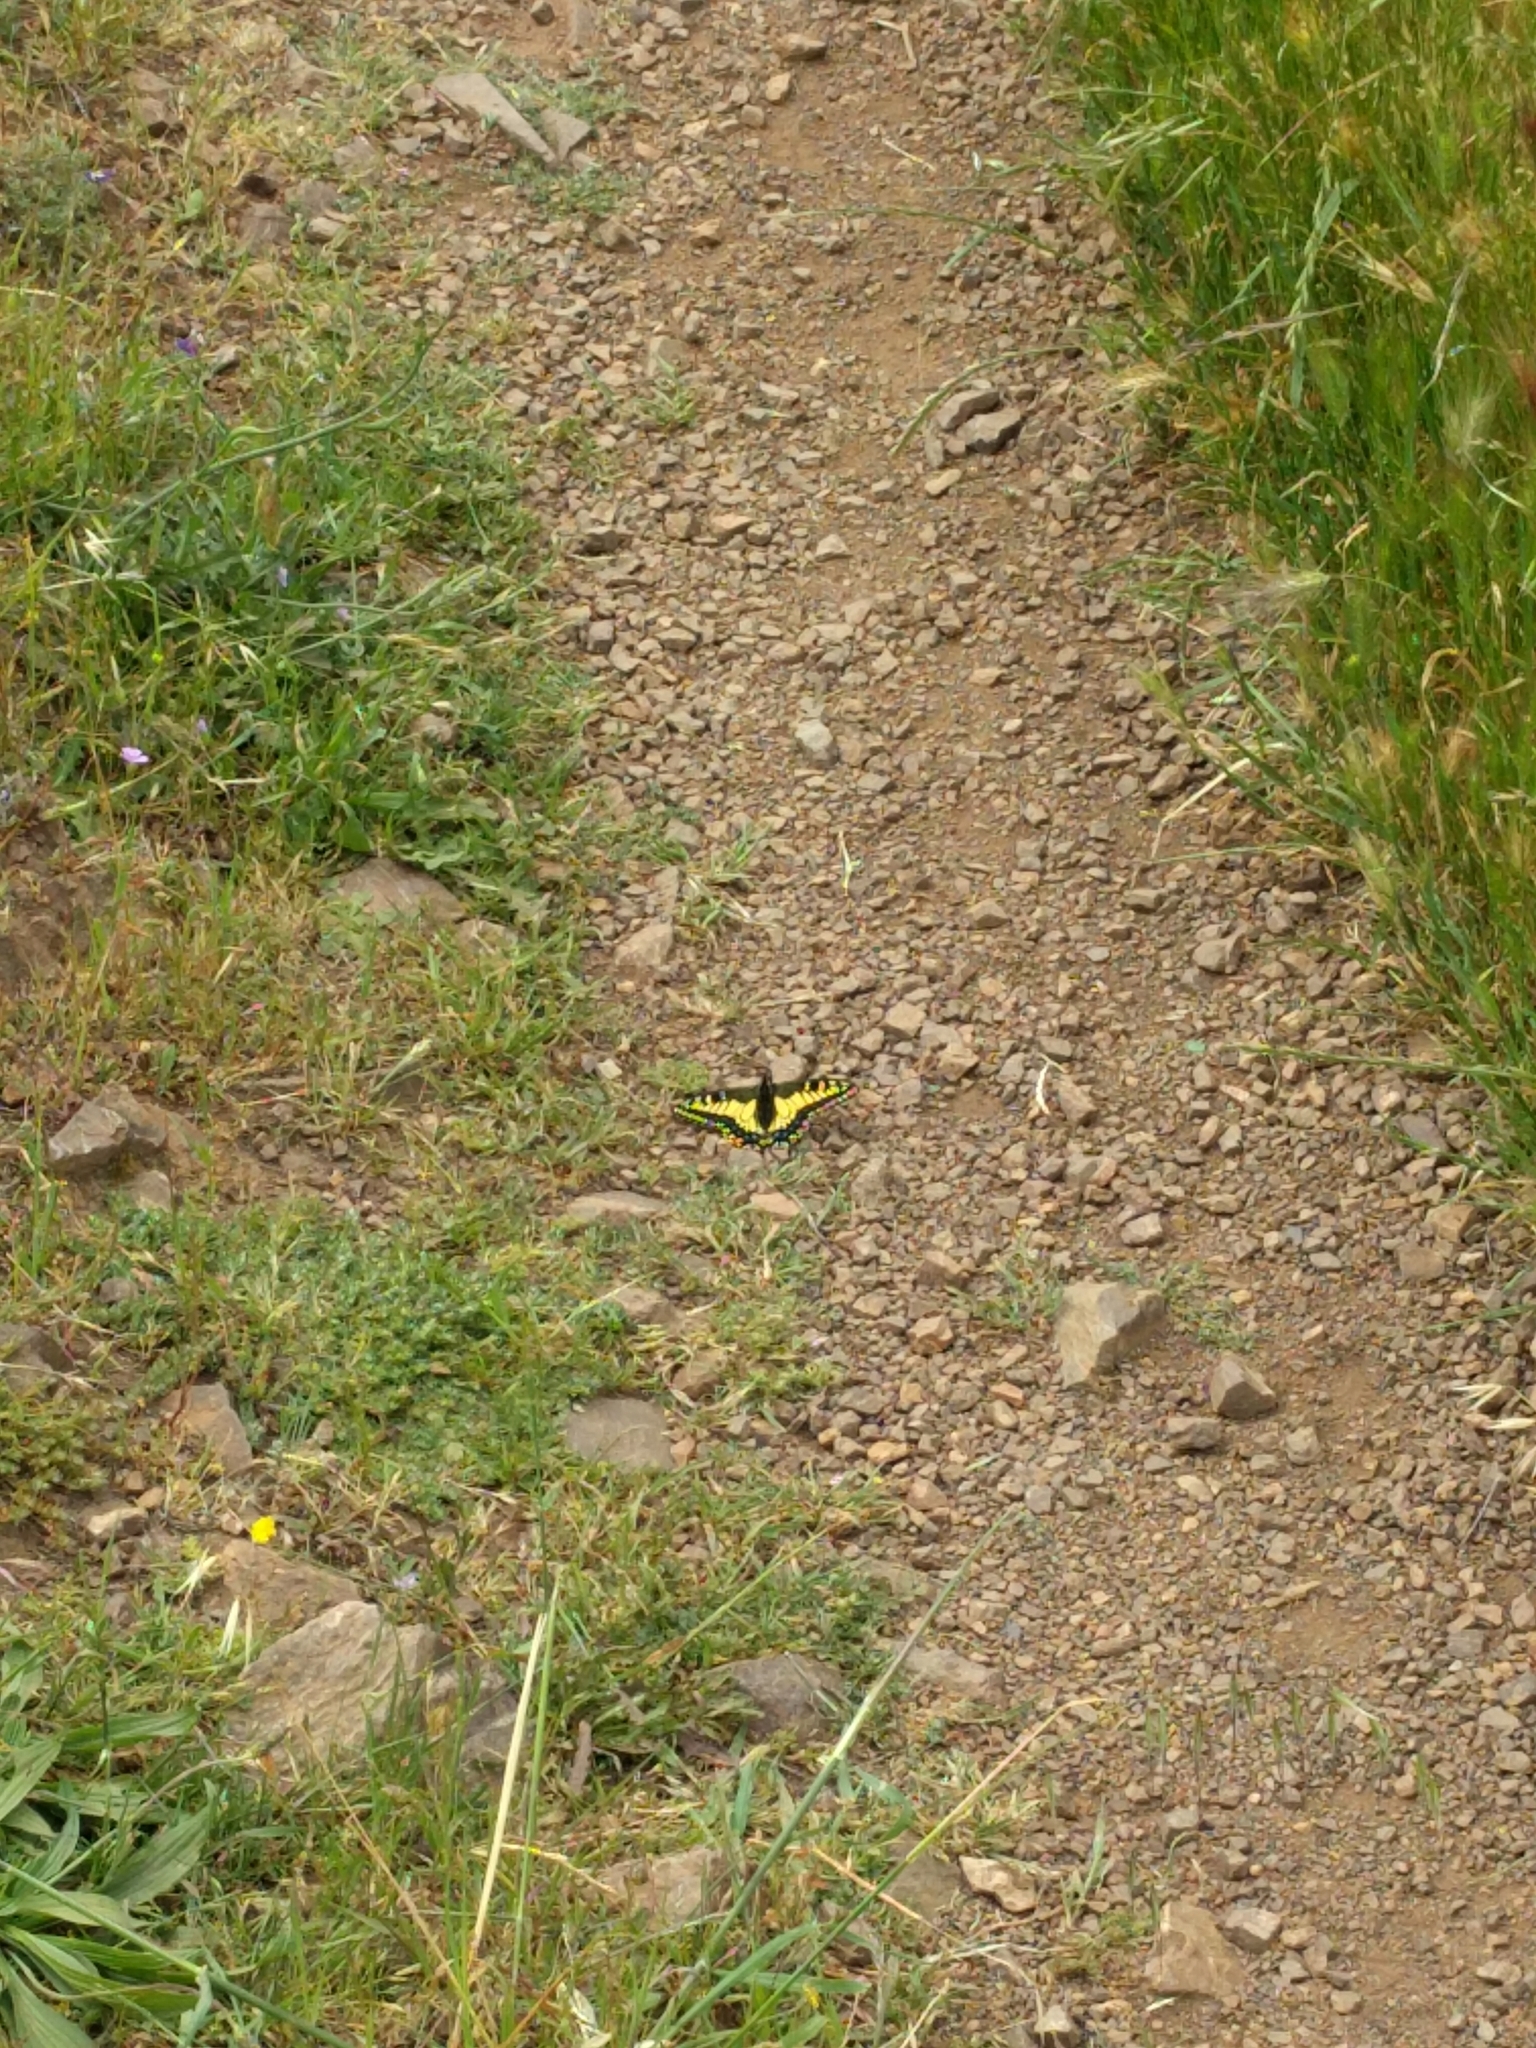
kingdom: Animalia
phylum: Arthropoda
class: Insecta
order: Lepidoptera
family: Papilionidae
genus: Papilio
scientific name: Papilio zelicaon
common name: Anise swallowtail
